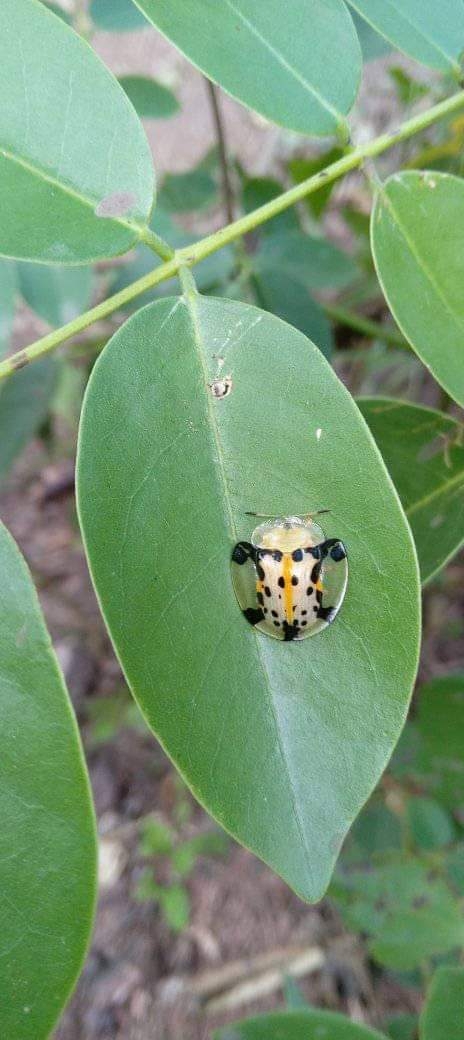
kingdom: Animalia
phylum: Arthropoda
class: Insecta
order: Coleoptera
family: Chrysomelidae
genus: Aspidimorpha
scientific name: Aspidimorpha miliaris
